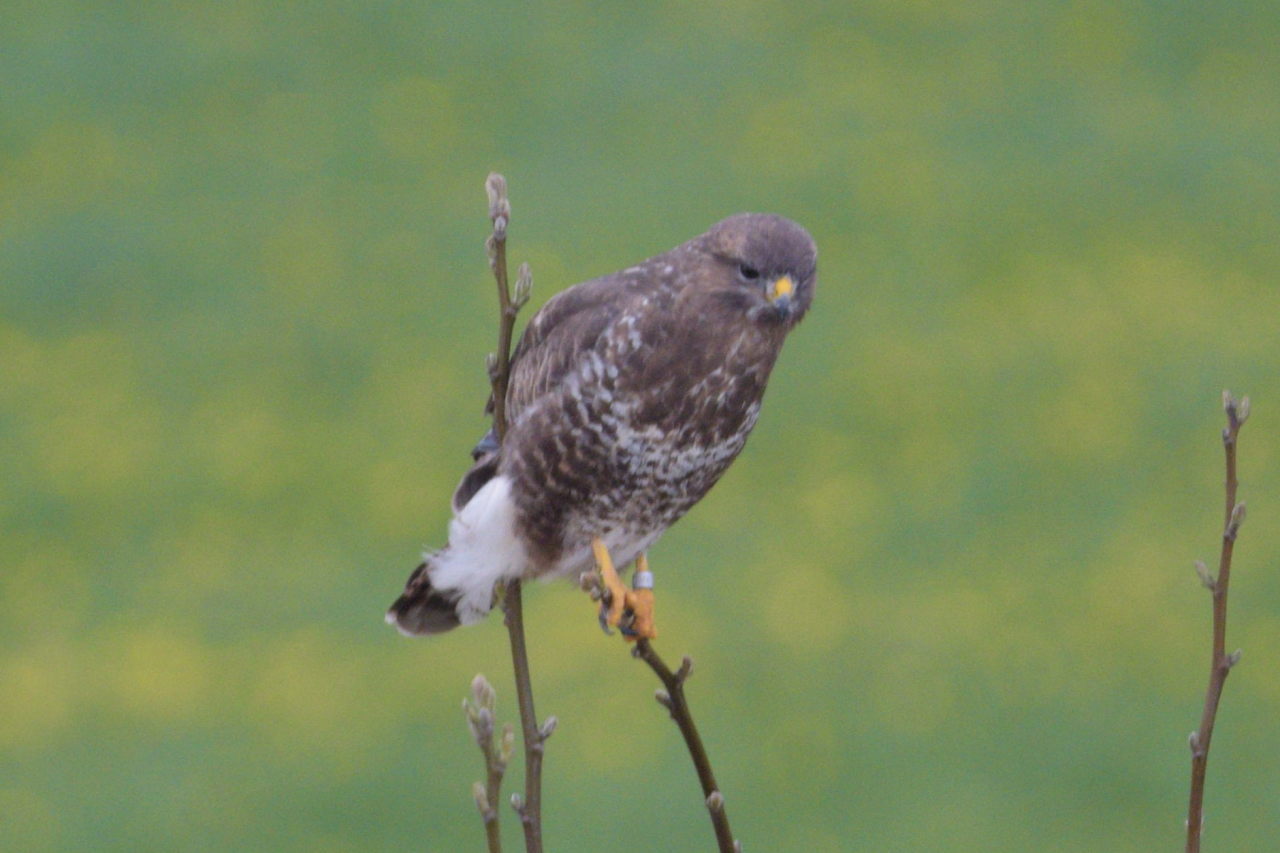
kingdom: Animalia
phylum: Chordata
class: Aves
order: Accipitriformes
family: Accipitridae
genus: Buteo
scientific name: Buteo buteo
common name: Common buzzard
